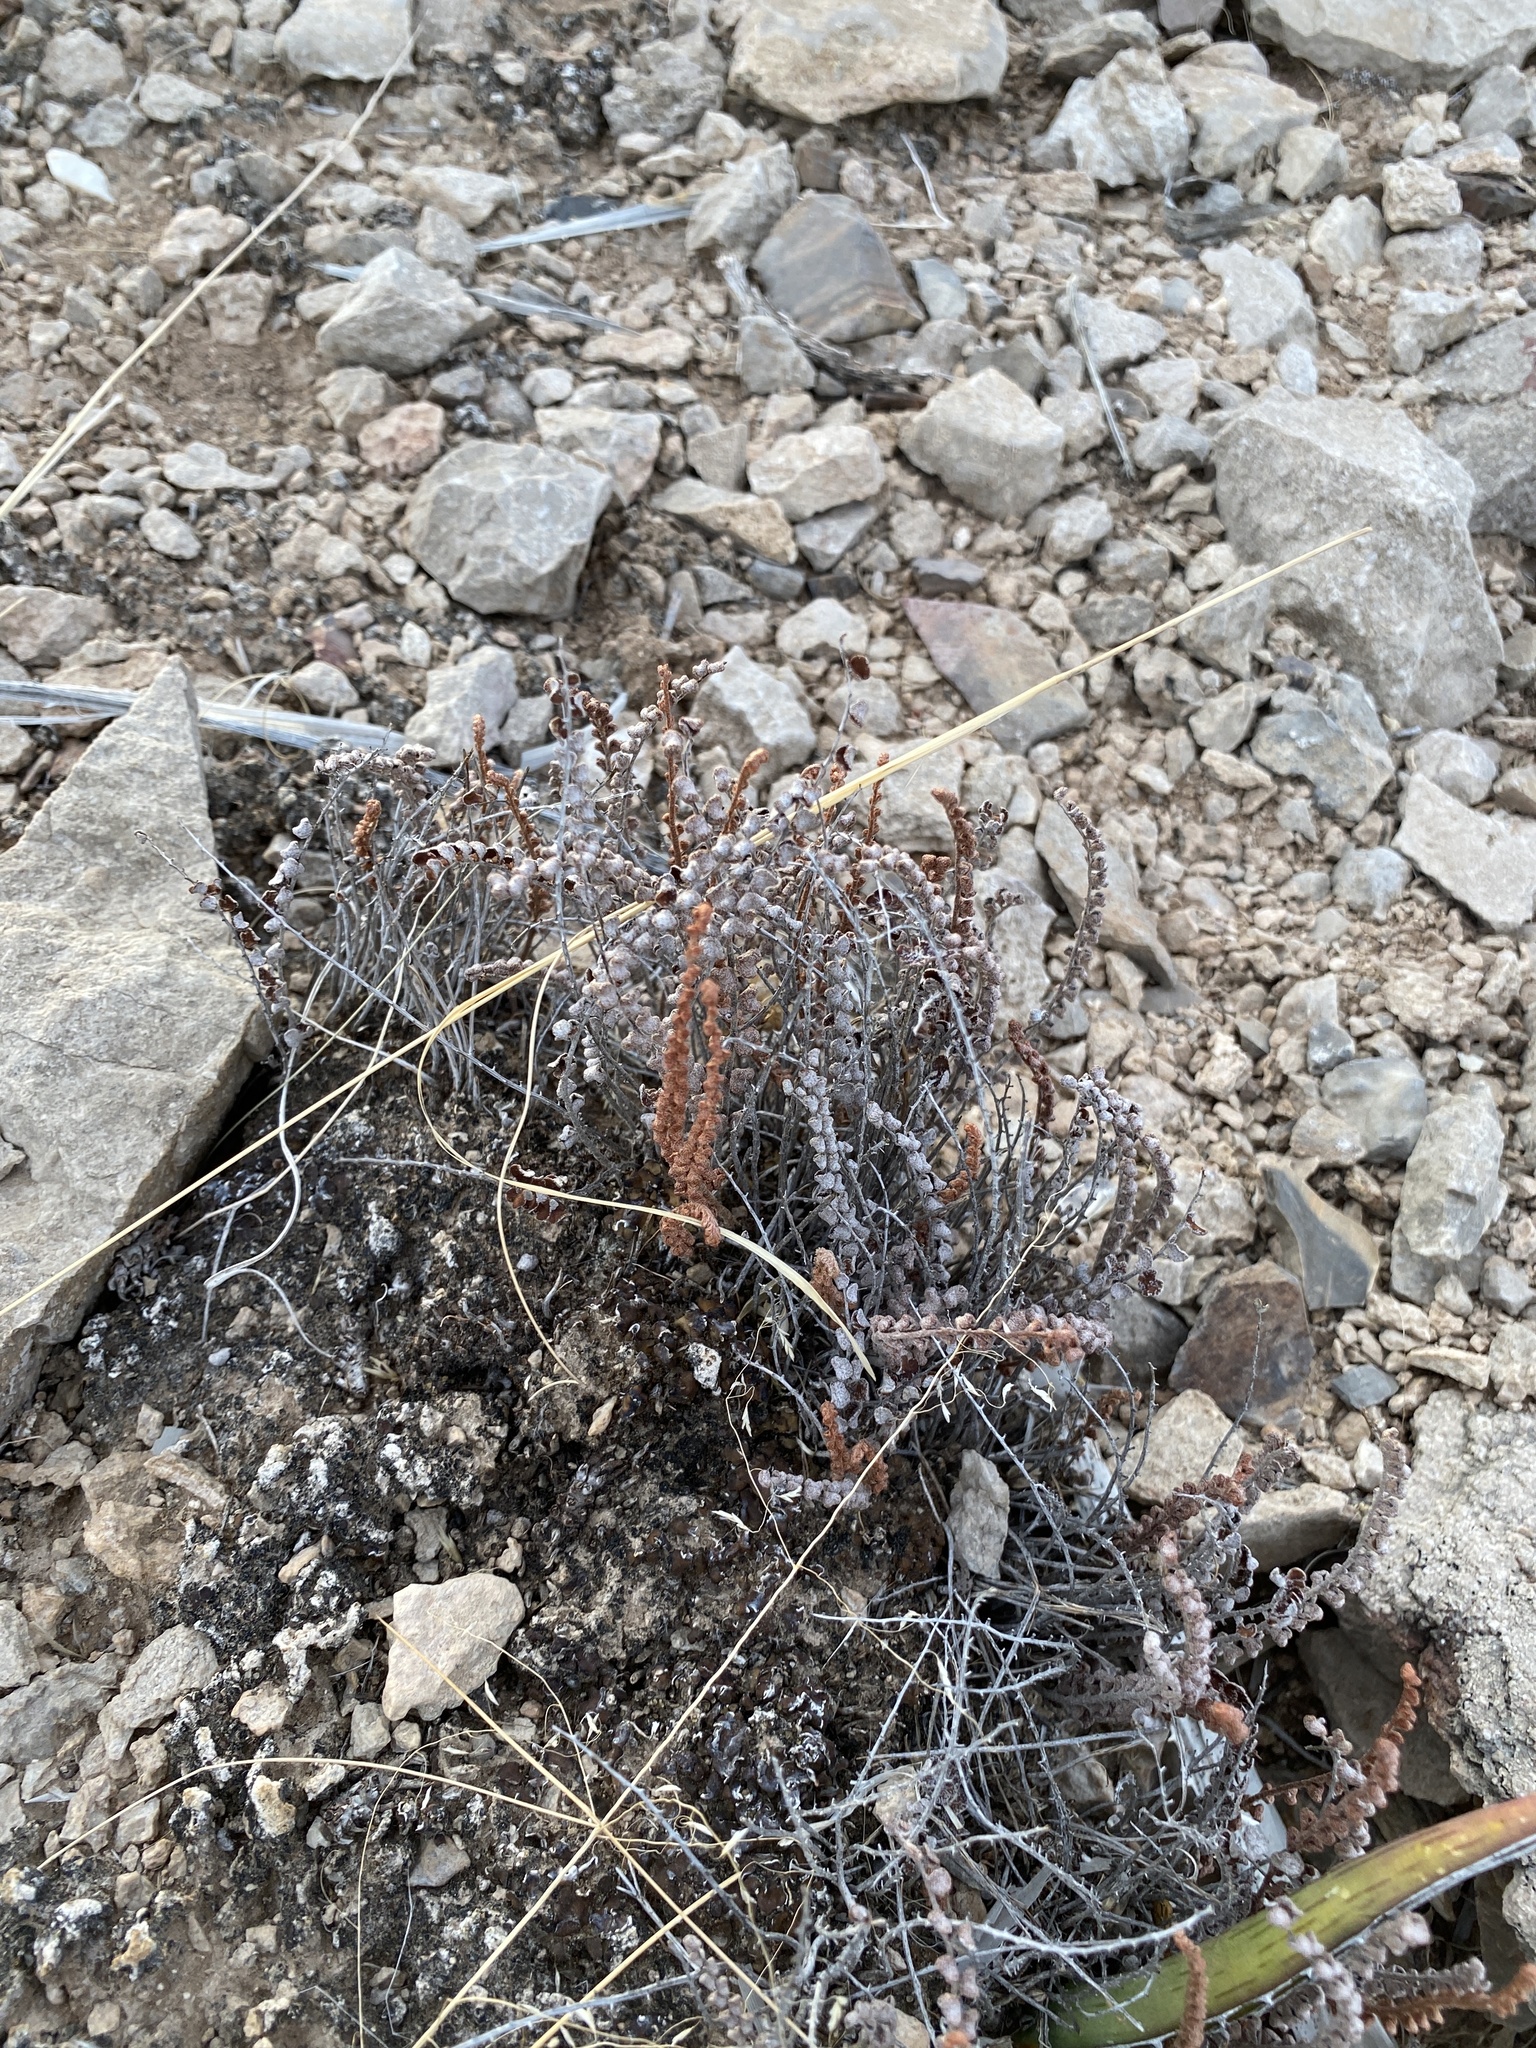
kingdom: Plantae
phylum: Tracheophyta
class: Polypodiopsida
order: Polypodiales
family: Pteridaceae
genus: Astrolepis
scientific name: Astrolepis cochisensis
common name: Scaly cloak fern
